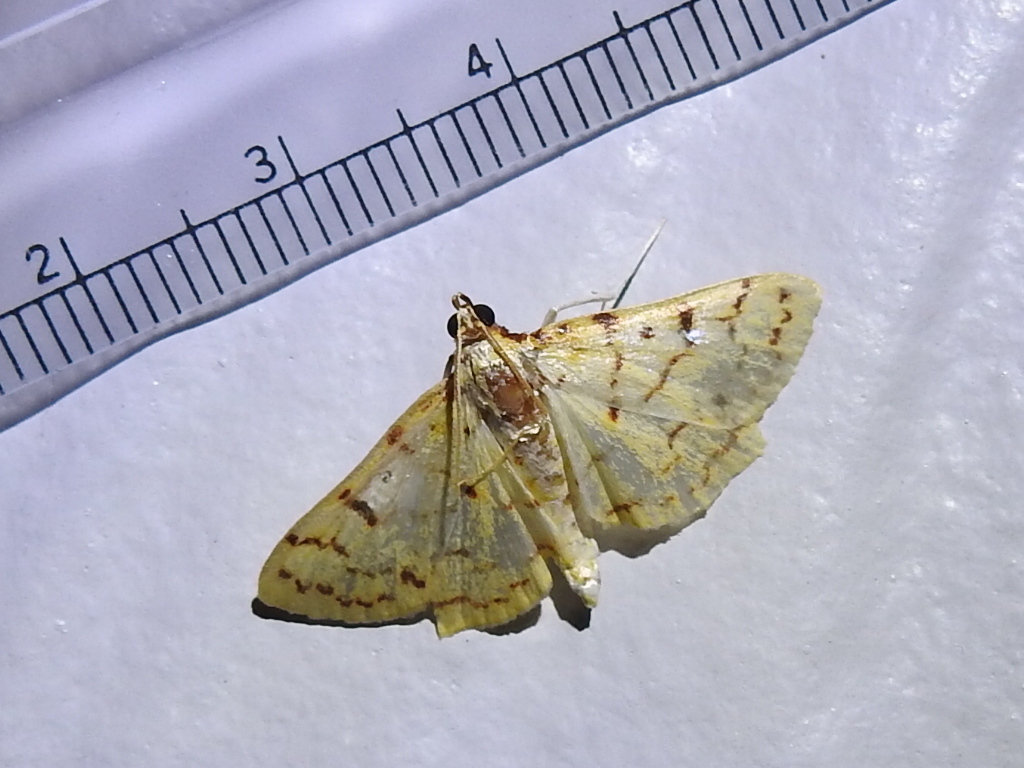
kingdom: Animalia
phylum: Arthropoda
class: Insecta
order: Lepidoptera
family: Crambidae
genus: Polygrammodes
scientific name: Polygrammodes flavidalis
